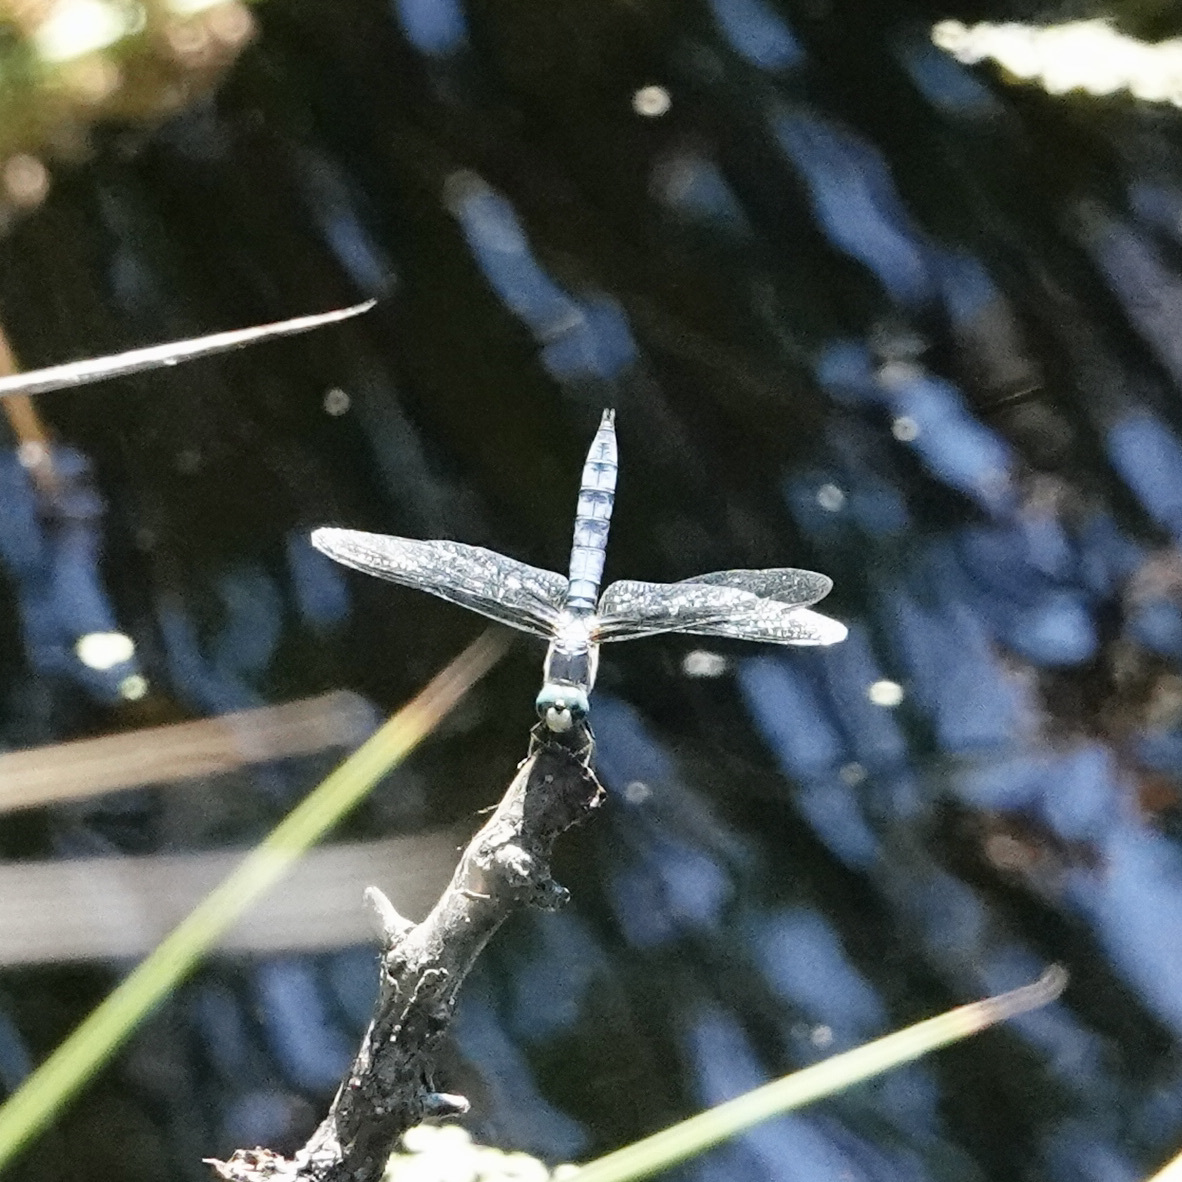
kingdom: Animalia
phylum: Arthropoda
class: Insecta
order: Odonata
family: Libellulidae
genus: Pachydiplax
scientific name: Pachydiplax longipennis
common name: Blue dasher
